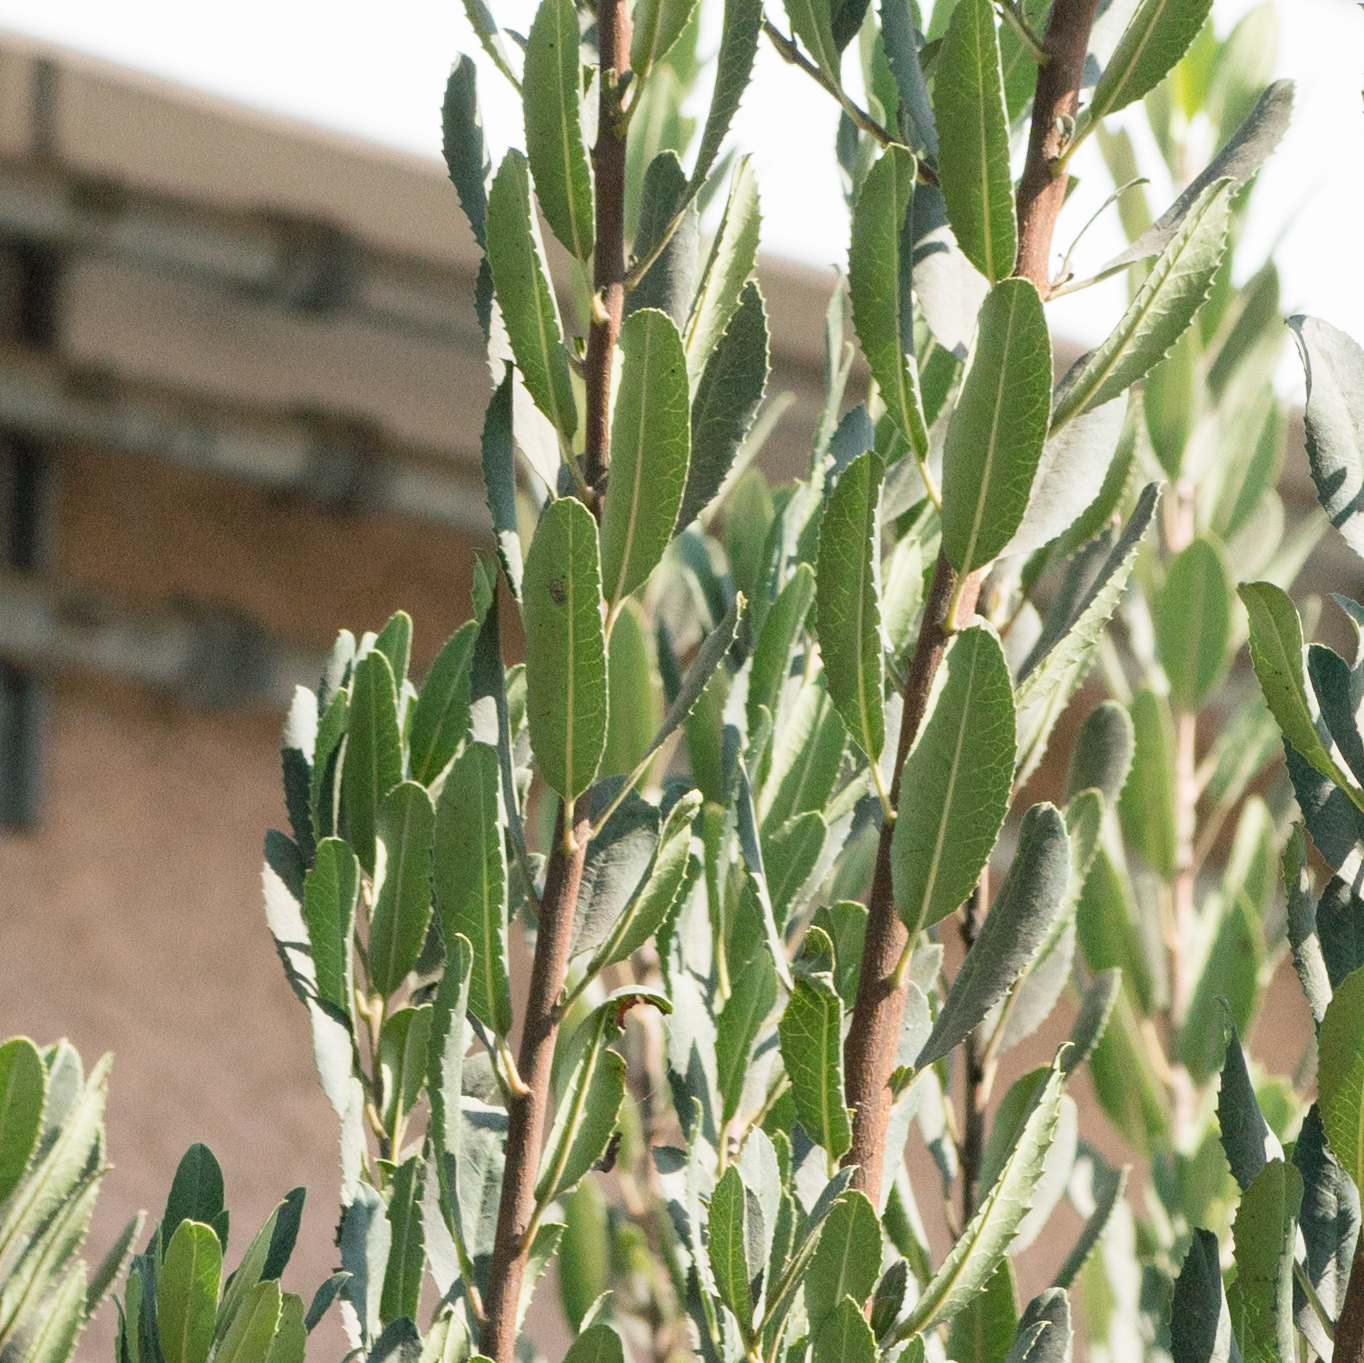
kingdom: Plantae
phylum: Tracheophyta
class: Magnoliopsida
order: Rosales
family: Rosaceae
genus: Heteromeles
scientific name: Heteromeles arbutifolia
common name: California-holly
